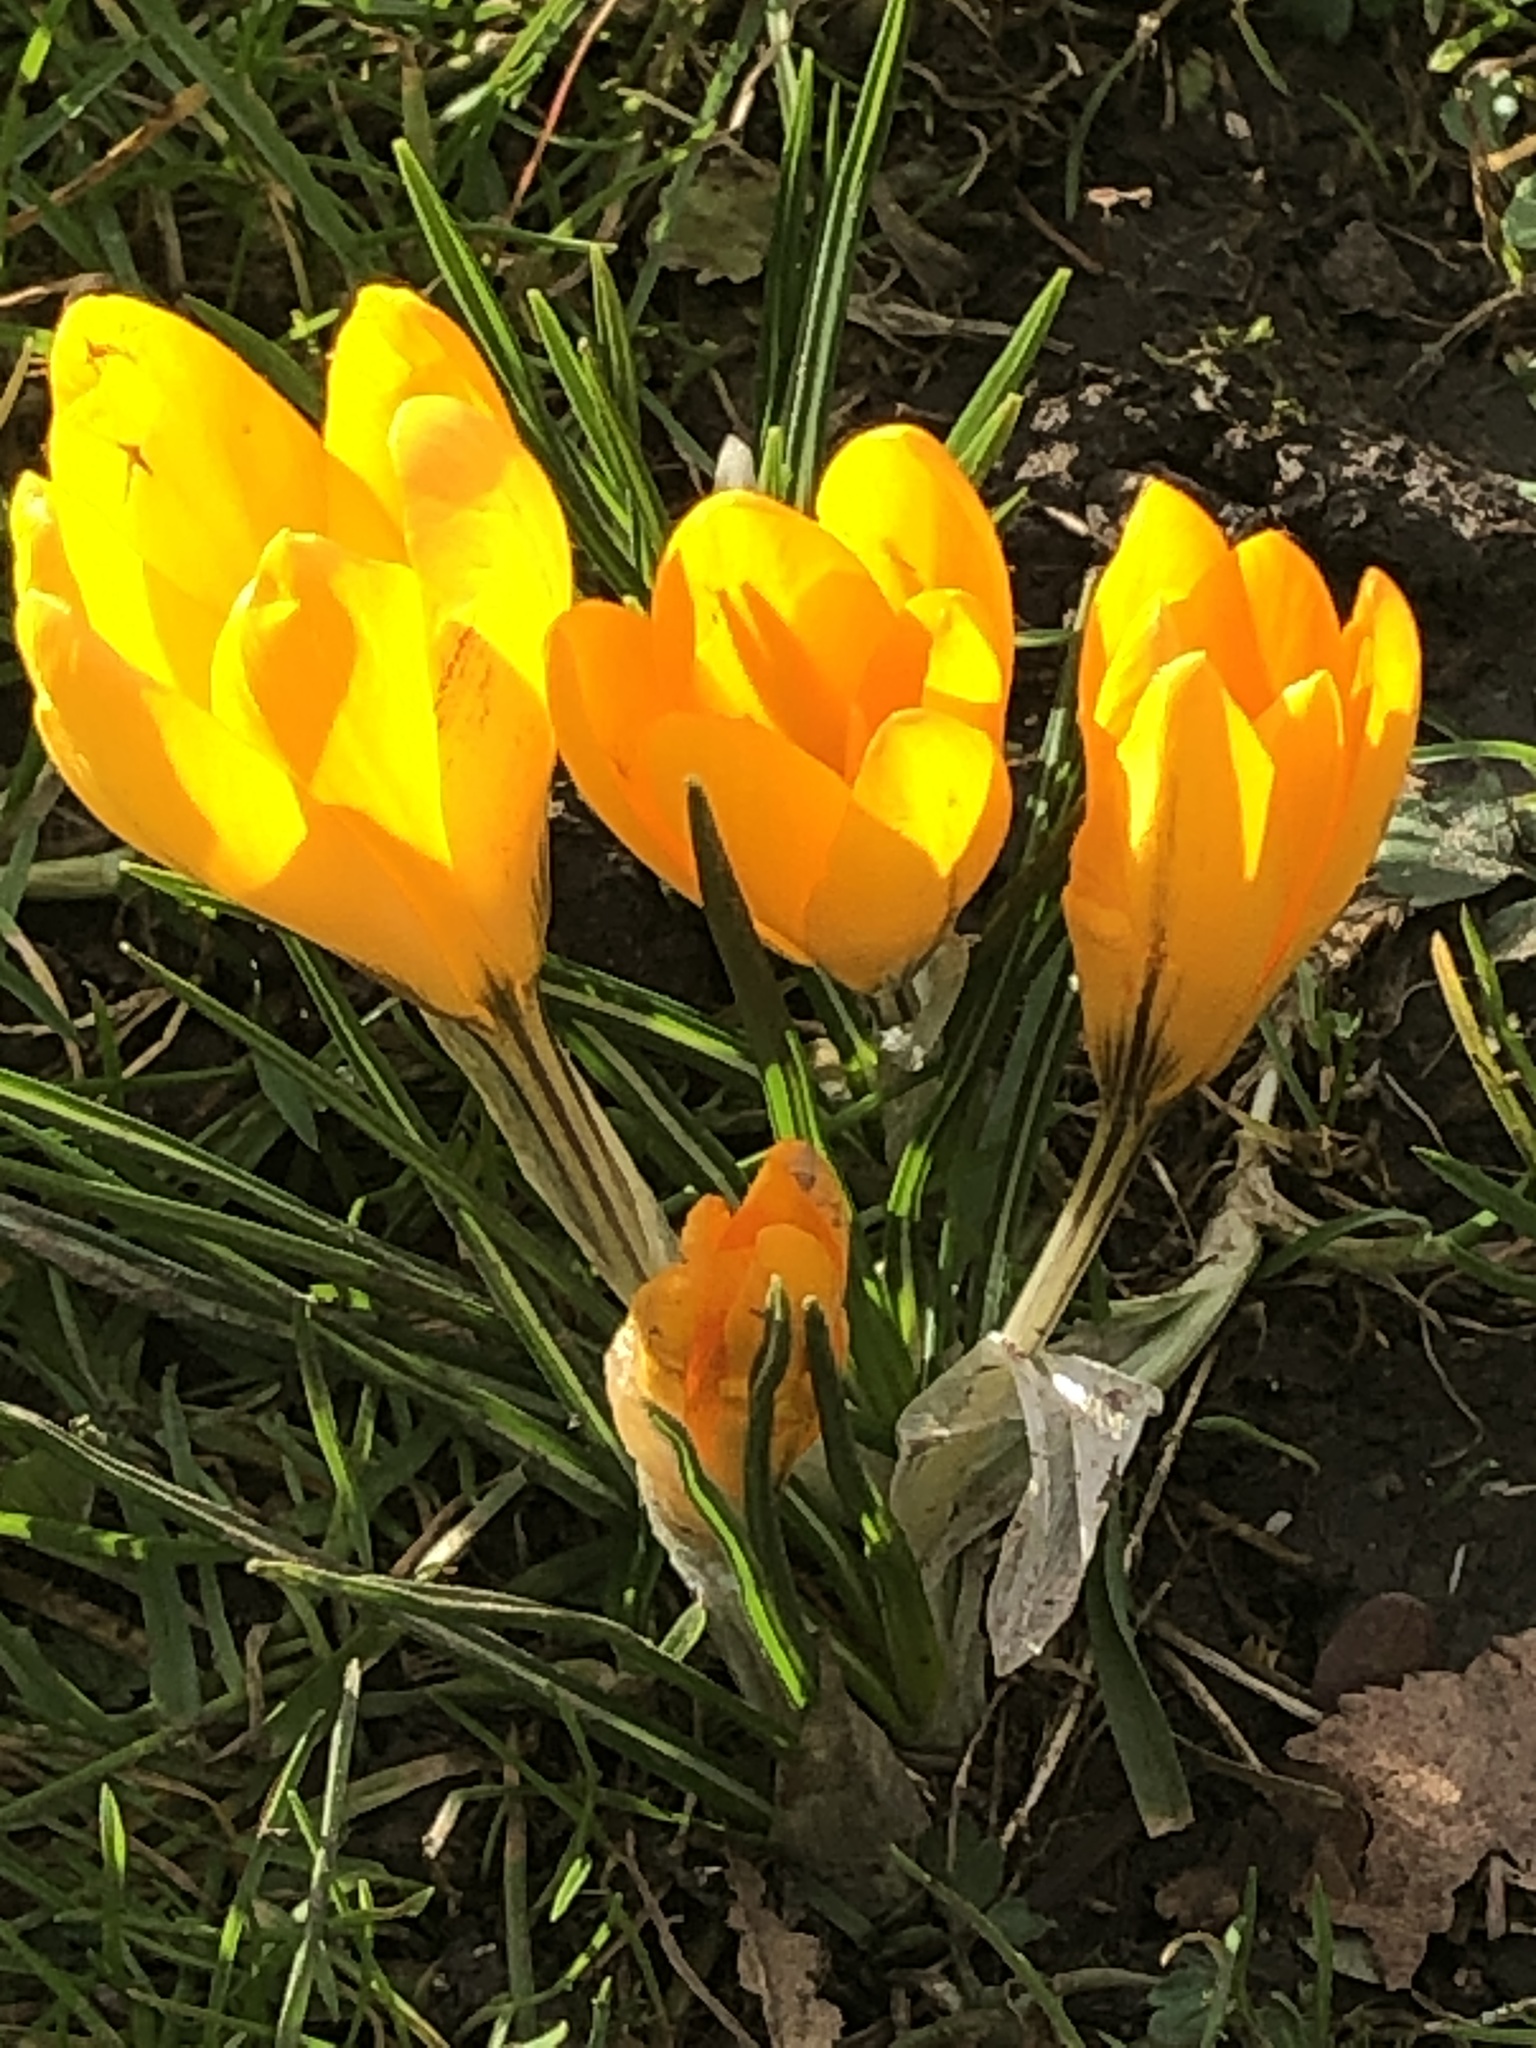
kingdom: Plantae
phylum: Tracheophyta
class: Liliopsida
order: Asparagales
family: Iridaceae
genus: Crocus
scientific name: Crocus luteus
